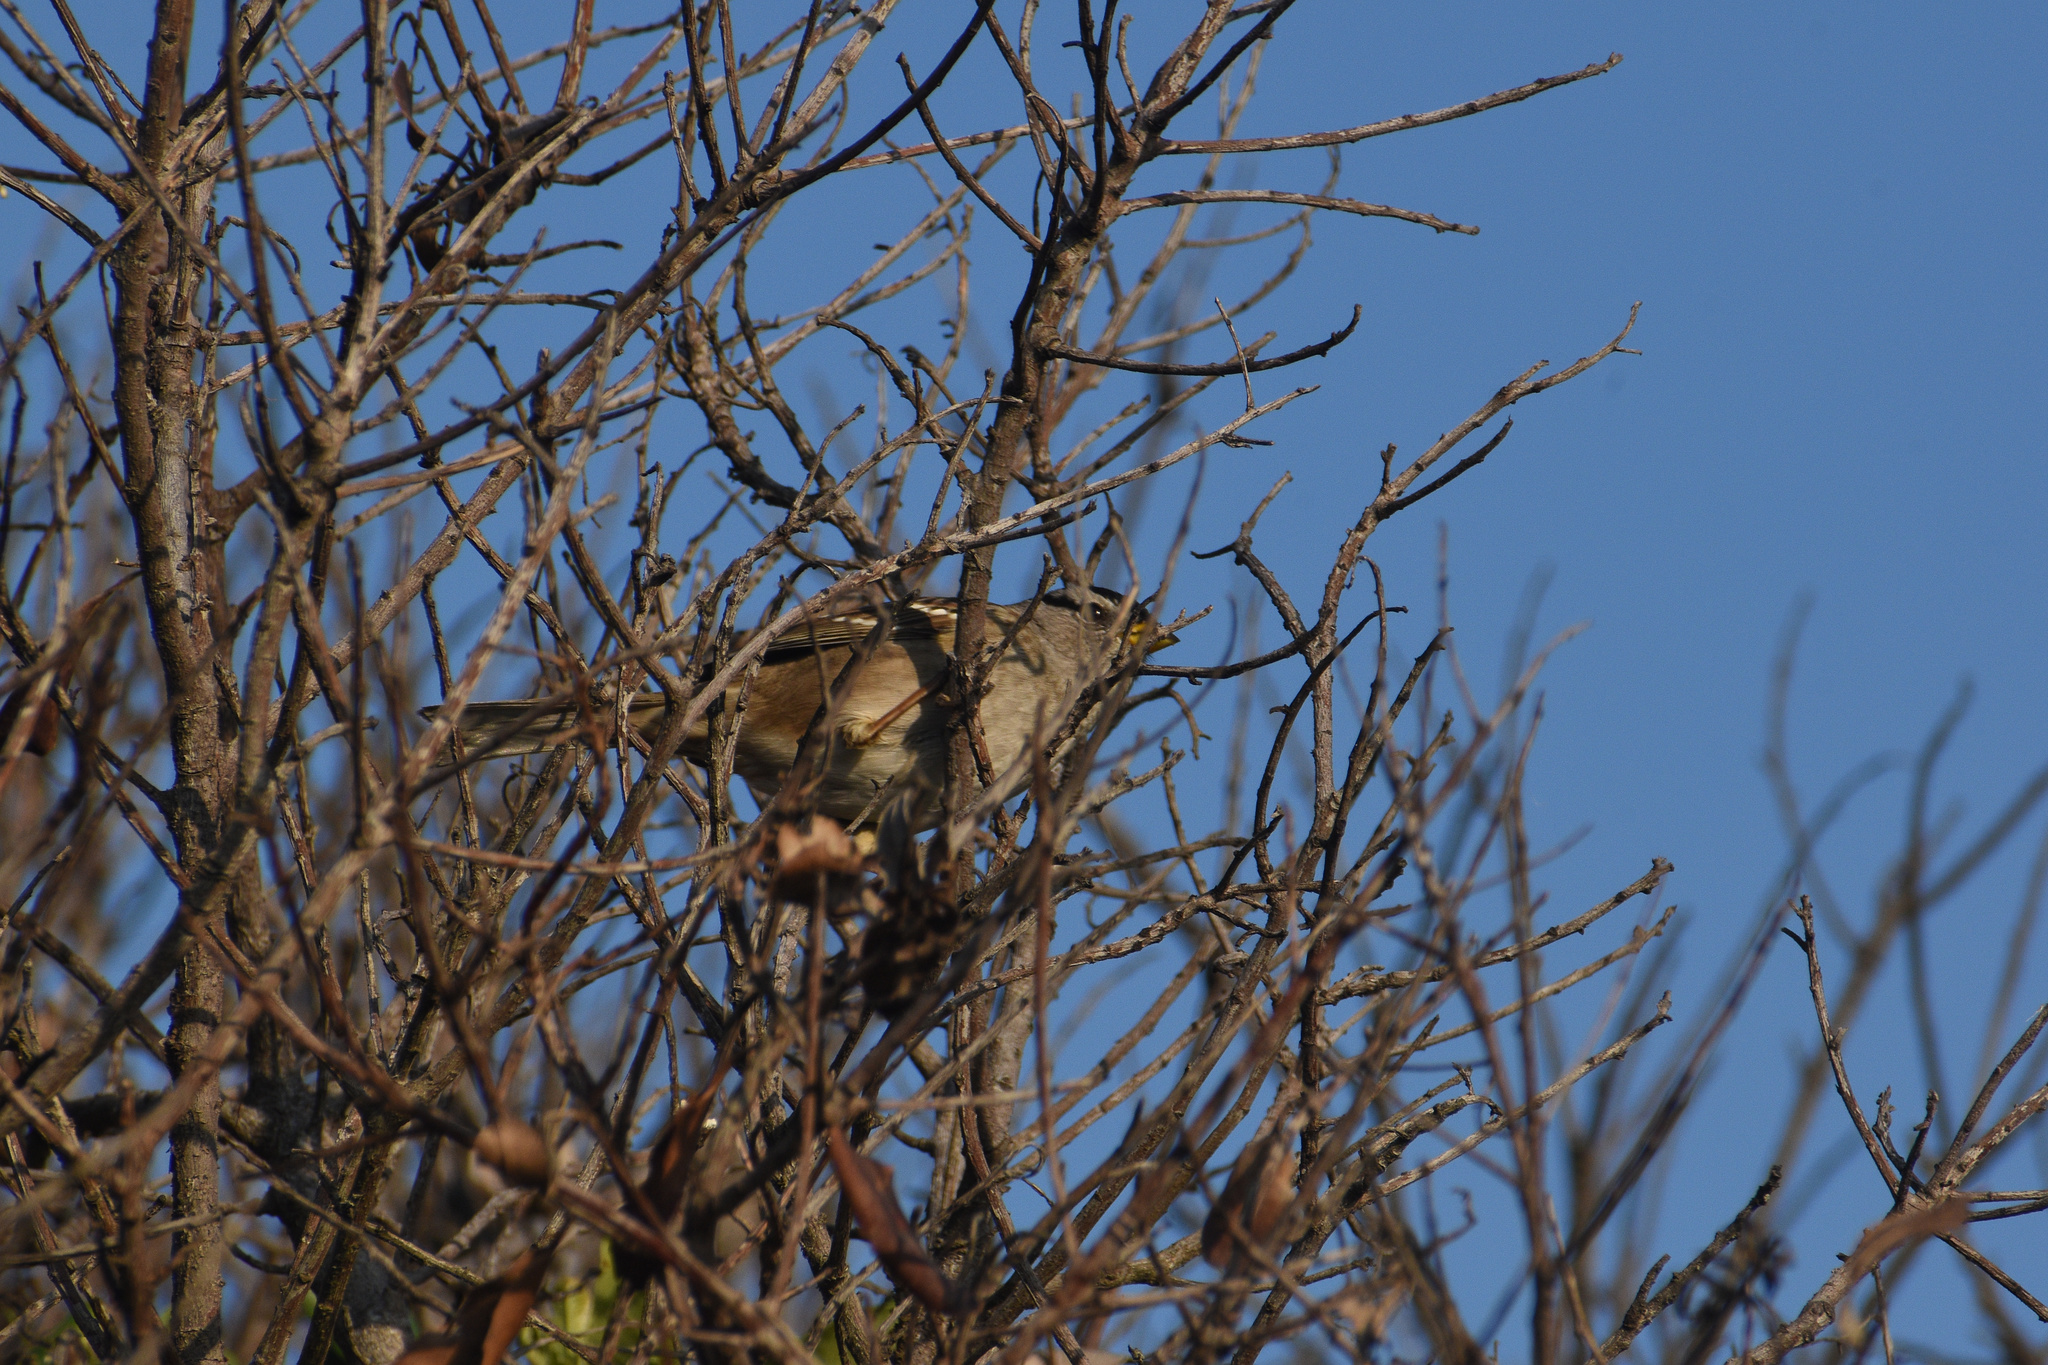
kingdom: Animalia
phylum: Chordata
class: Aves
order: Passeriformes
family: Passerellidae
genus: Zonotrichia
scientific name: Zonotrichia leucophrys
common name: White-crowned sparrow
